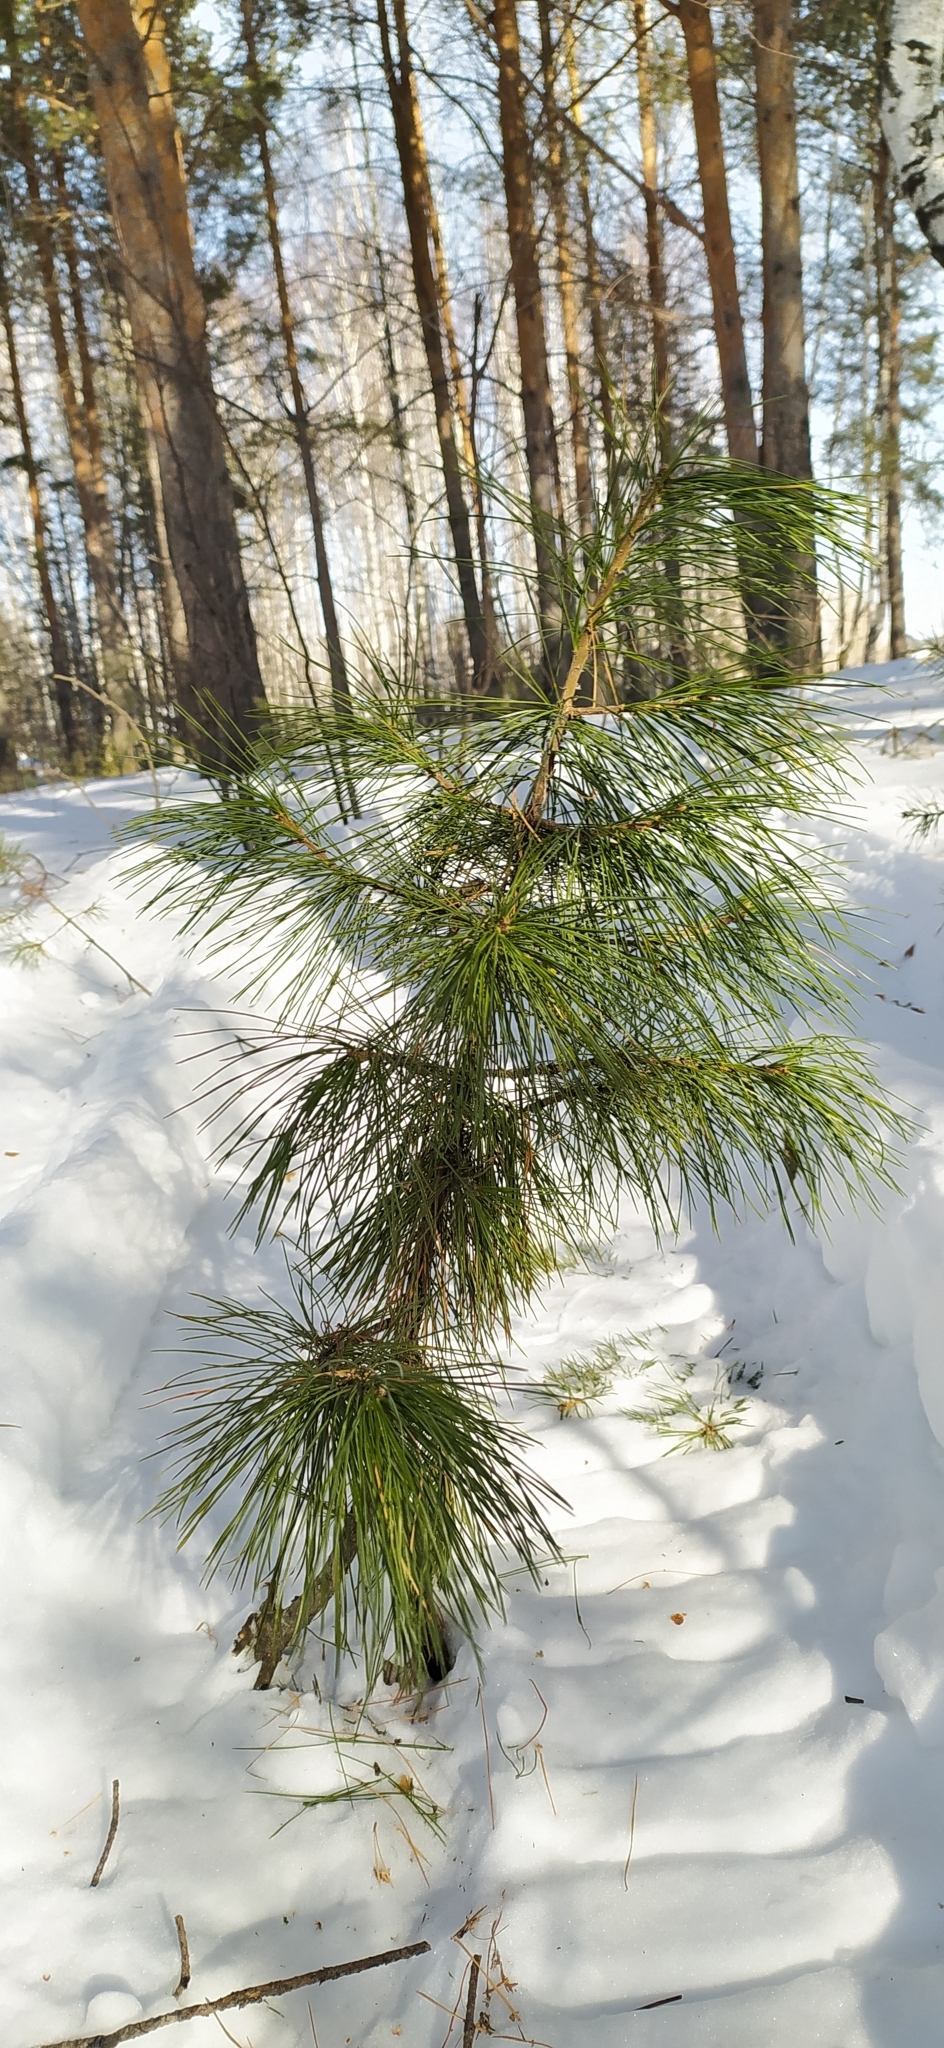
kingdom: Plantae
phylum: Tracheophyta
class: Pinopsida
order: Pinales
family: Pinaceae
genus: Pinus
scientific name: Pinus sibirica
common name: Siberian pine
